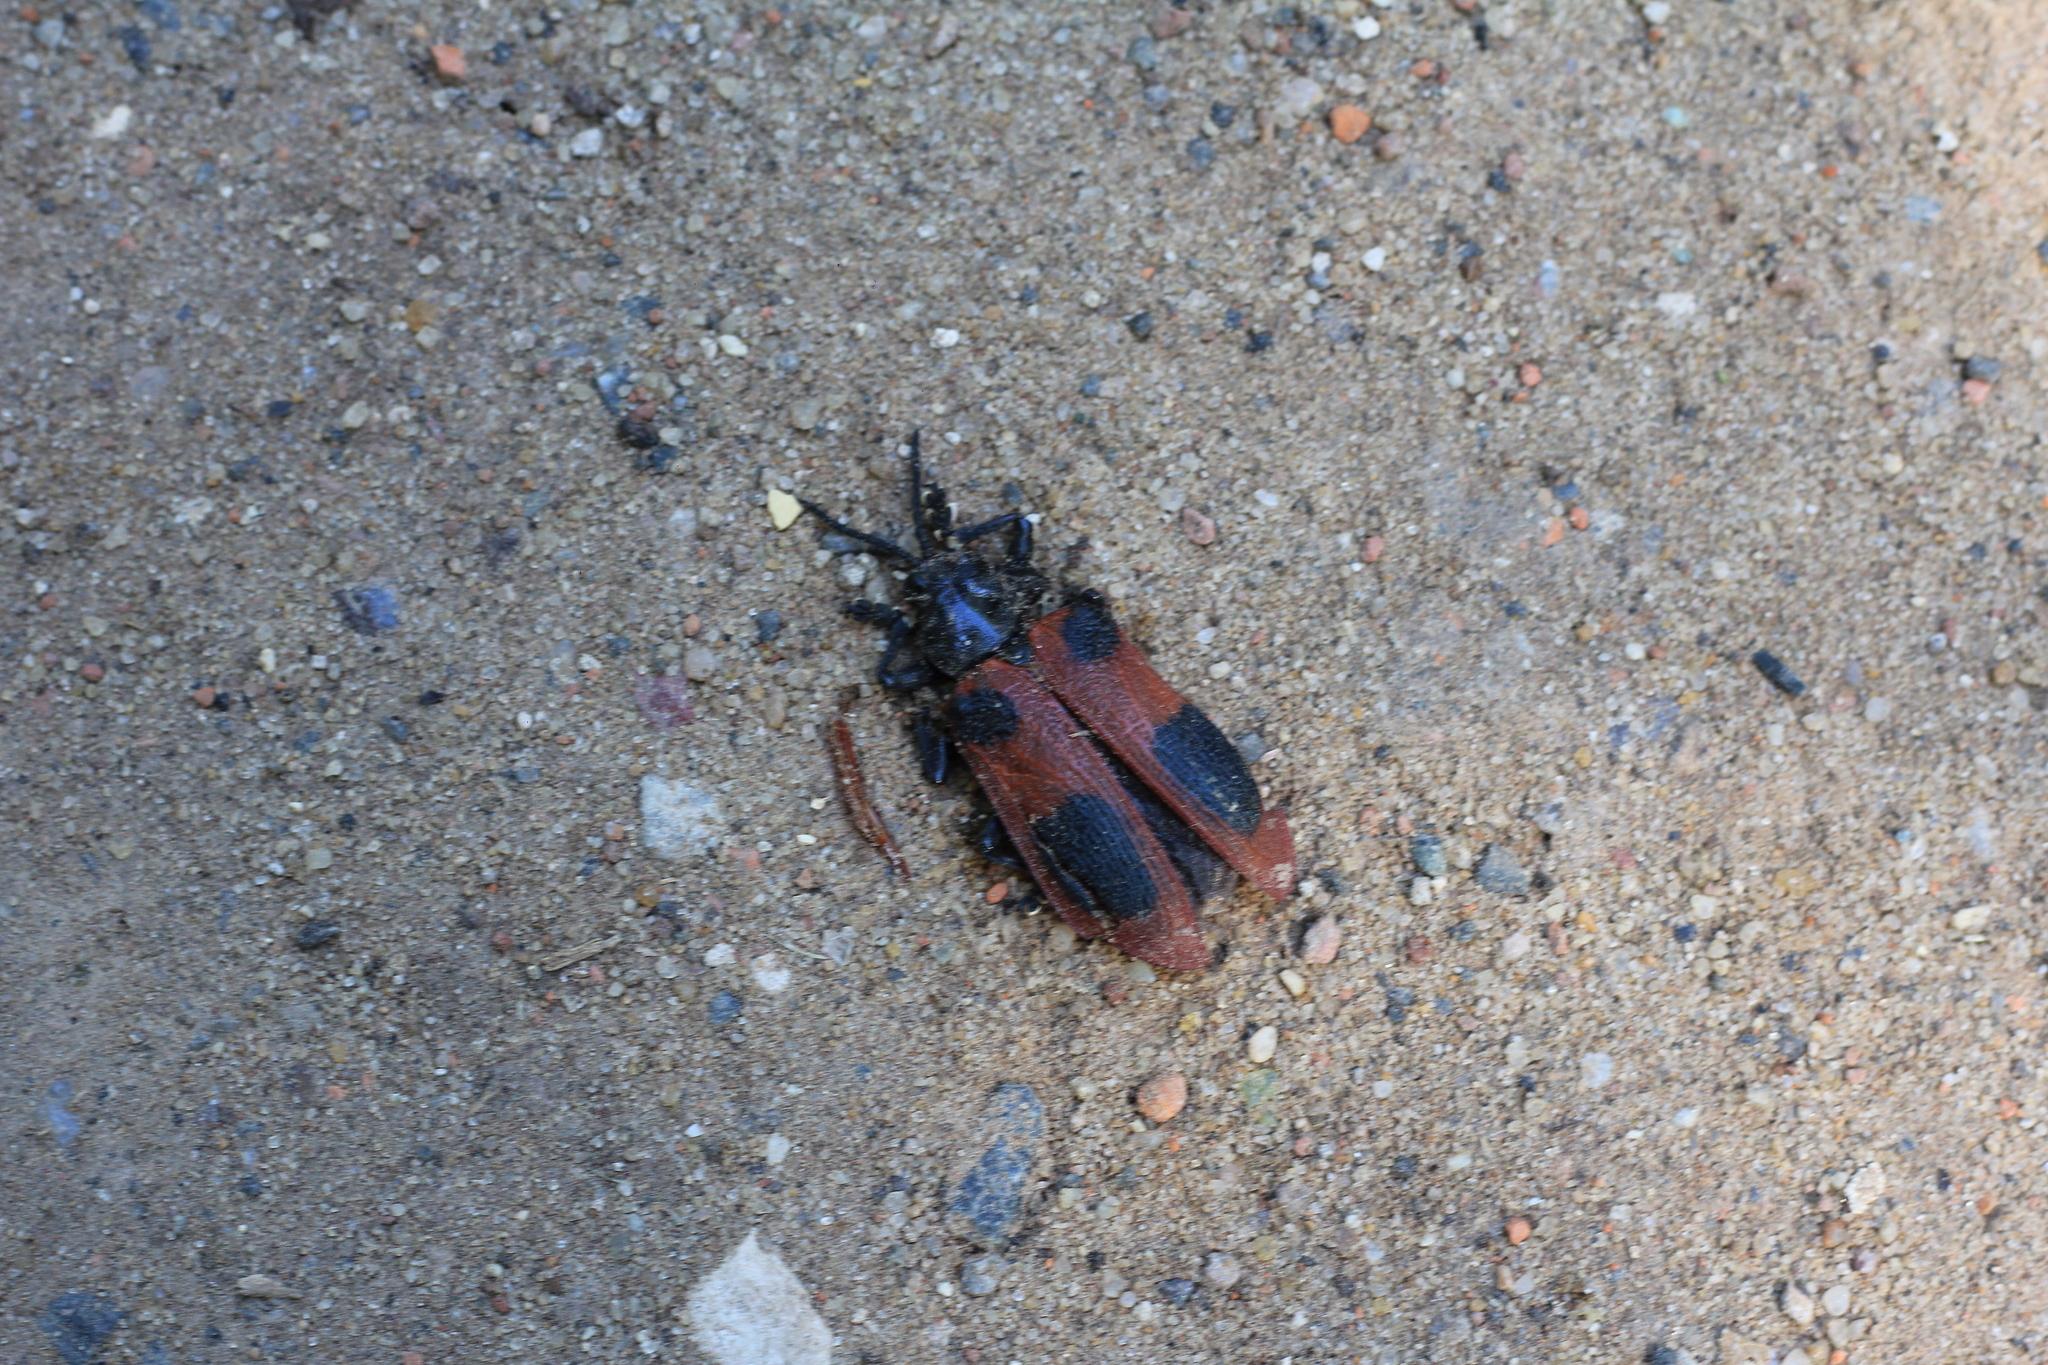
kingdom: Animalia
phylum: Arthropoda
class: Insecta
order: Coleoptera
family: Chrysomelidae
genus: Coraliomela
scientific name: Coraliomela quadrimaculata
